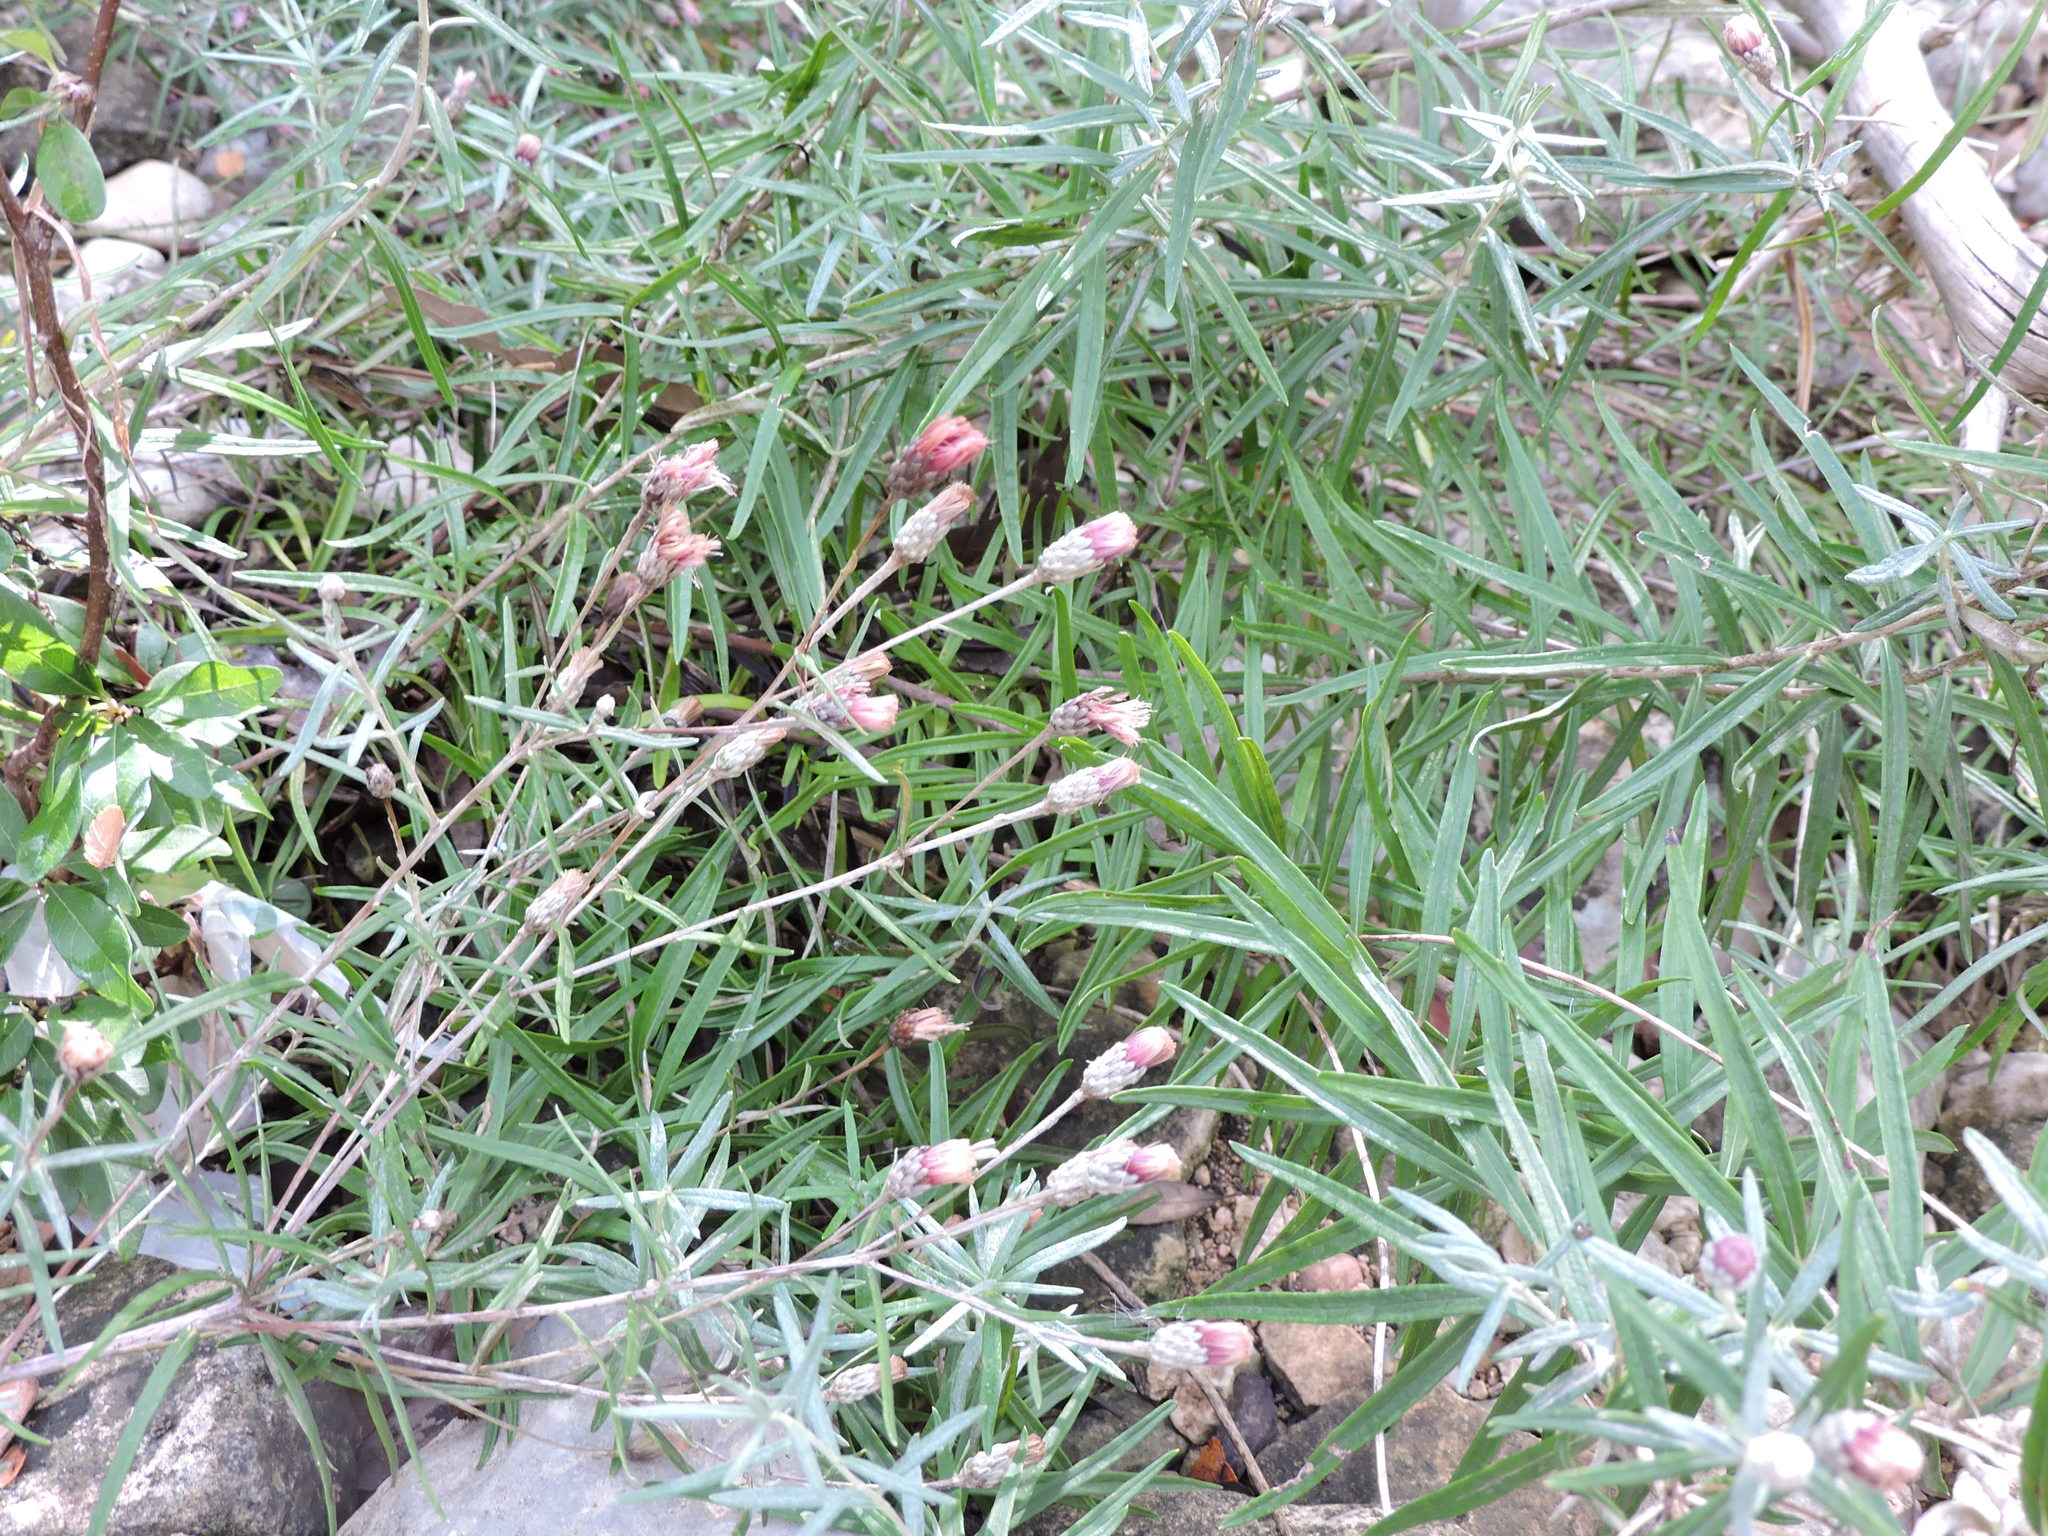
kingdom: Plantae
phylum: Tracheophyta
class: Magnoliopsida
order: Asterales
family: Asteraceae
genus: Vernonia
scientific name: Vernonia lindheimeri
